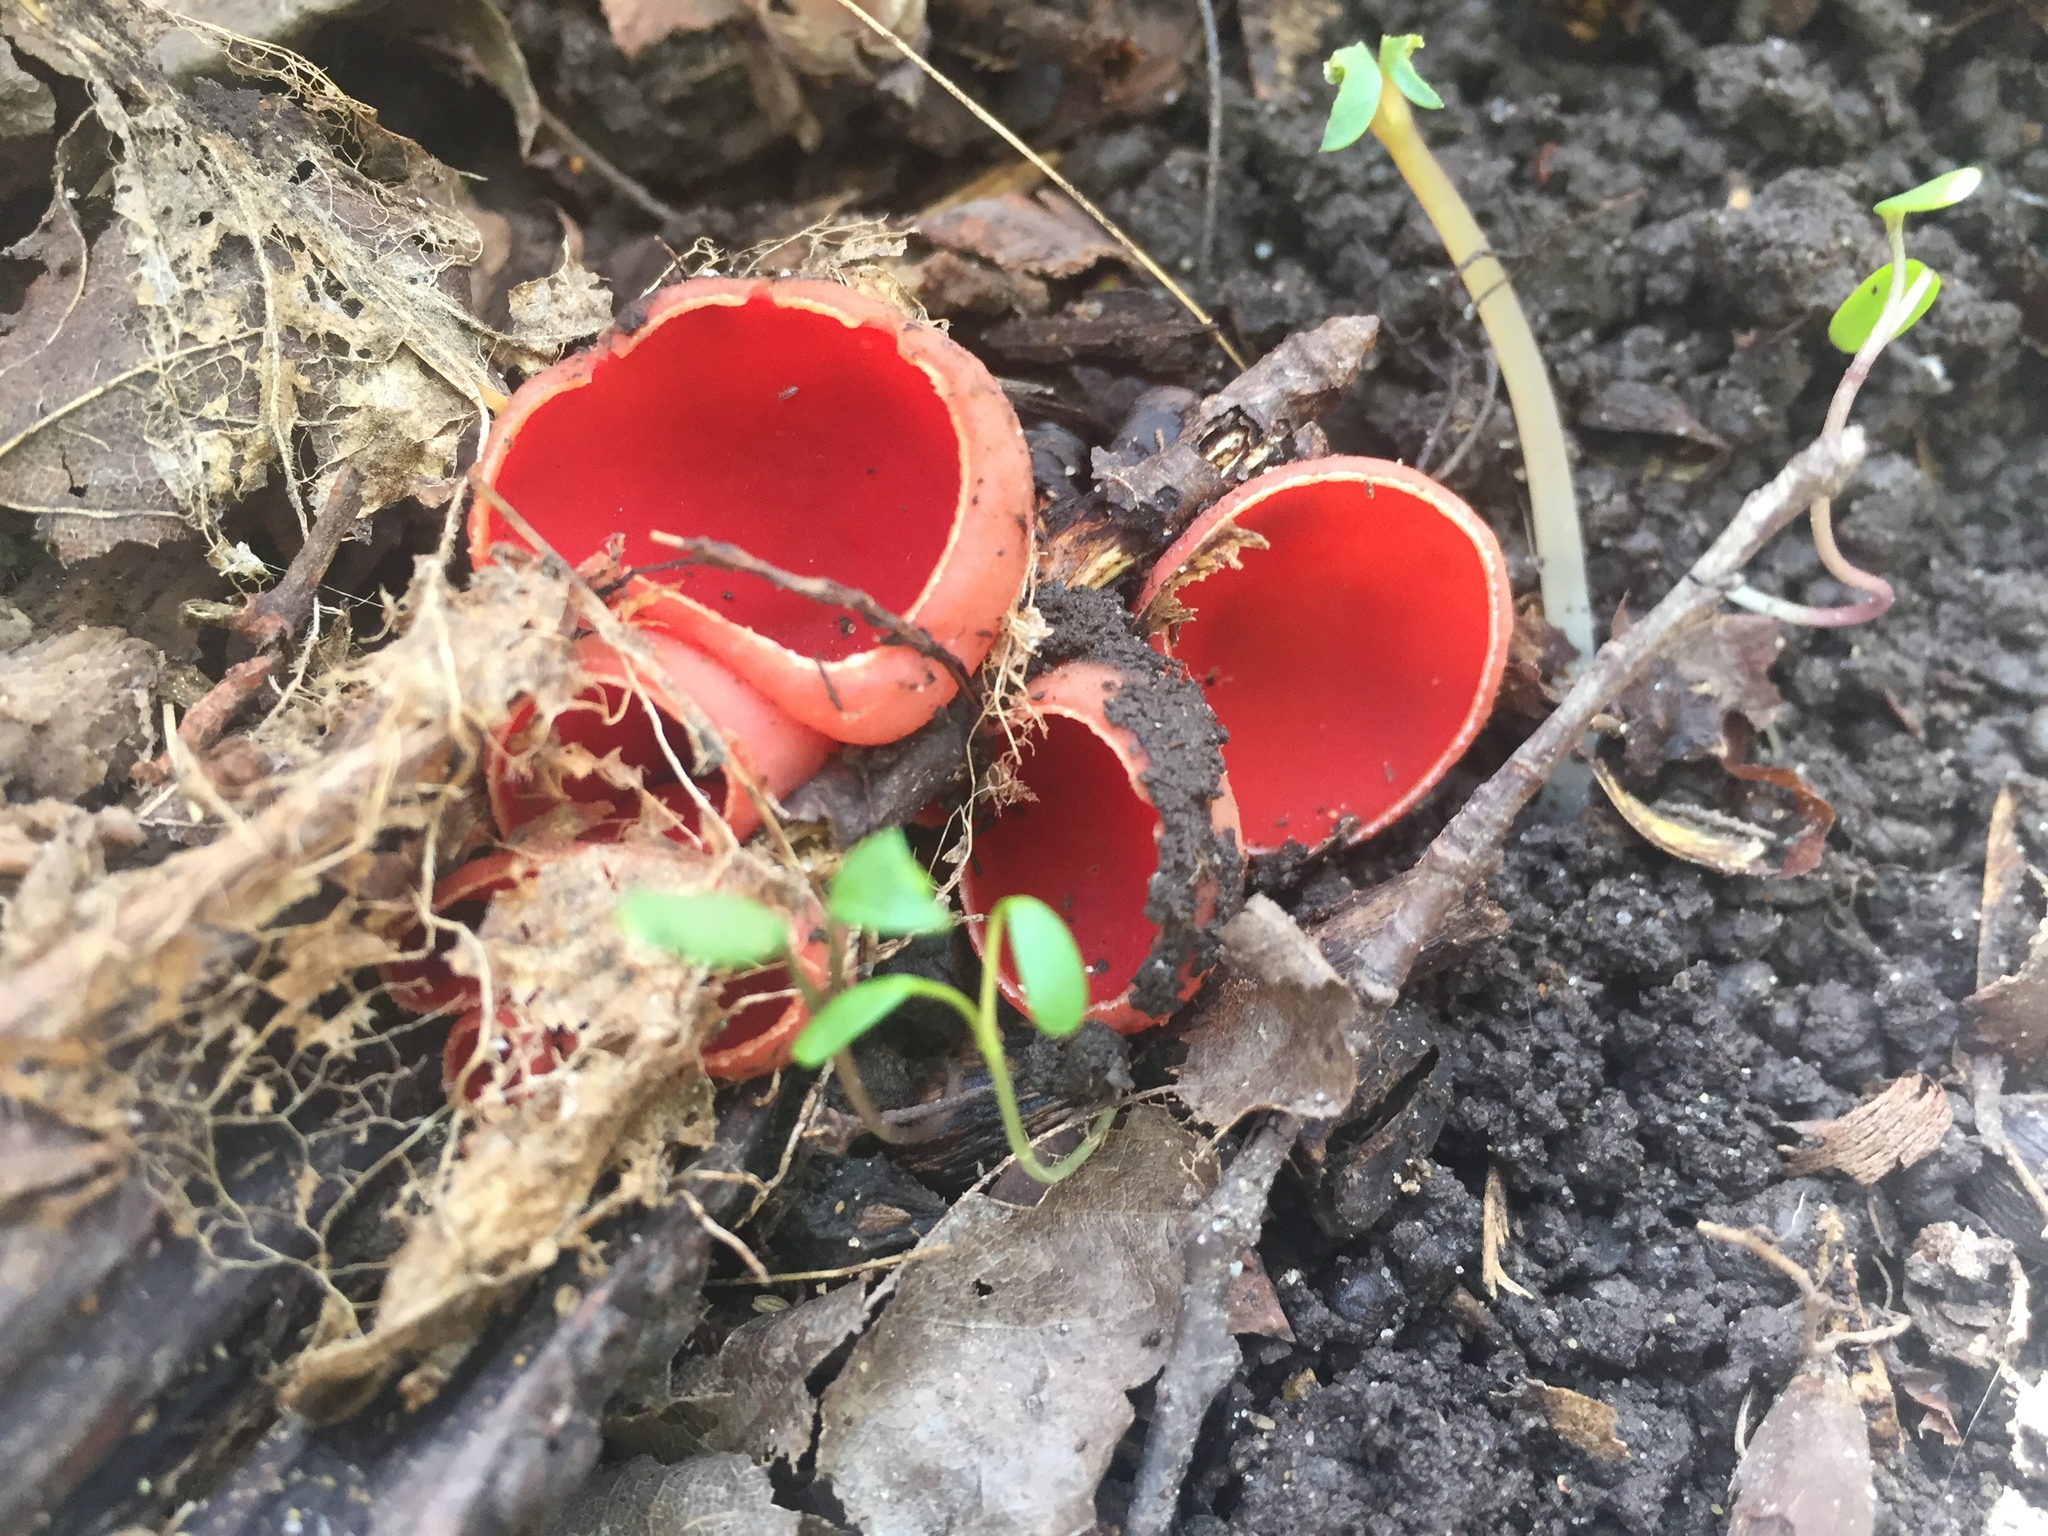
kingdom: Fungi
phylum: Ascomycota
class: Pezizomycetes
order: Pezizales
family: Sarcoscyphaceae
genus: Sarcoscypha
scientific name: Sarcoscypha austriaca
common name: Scarlet elfcup
